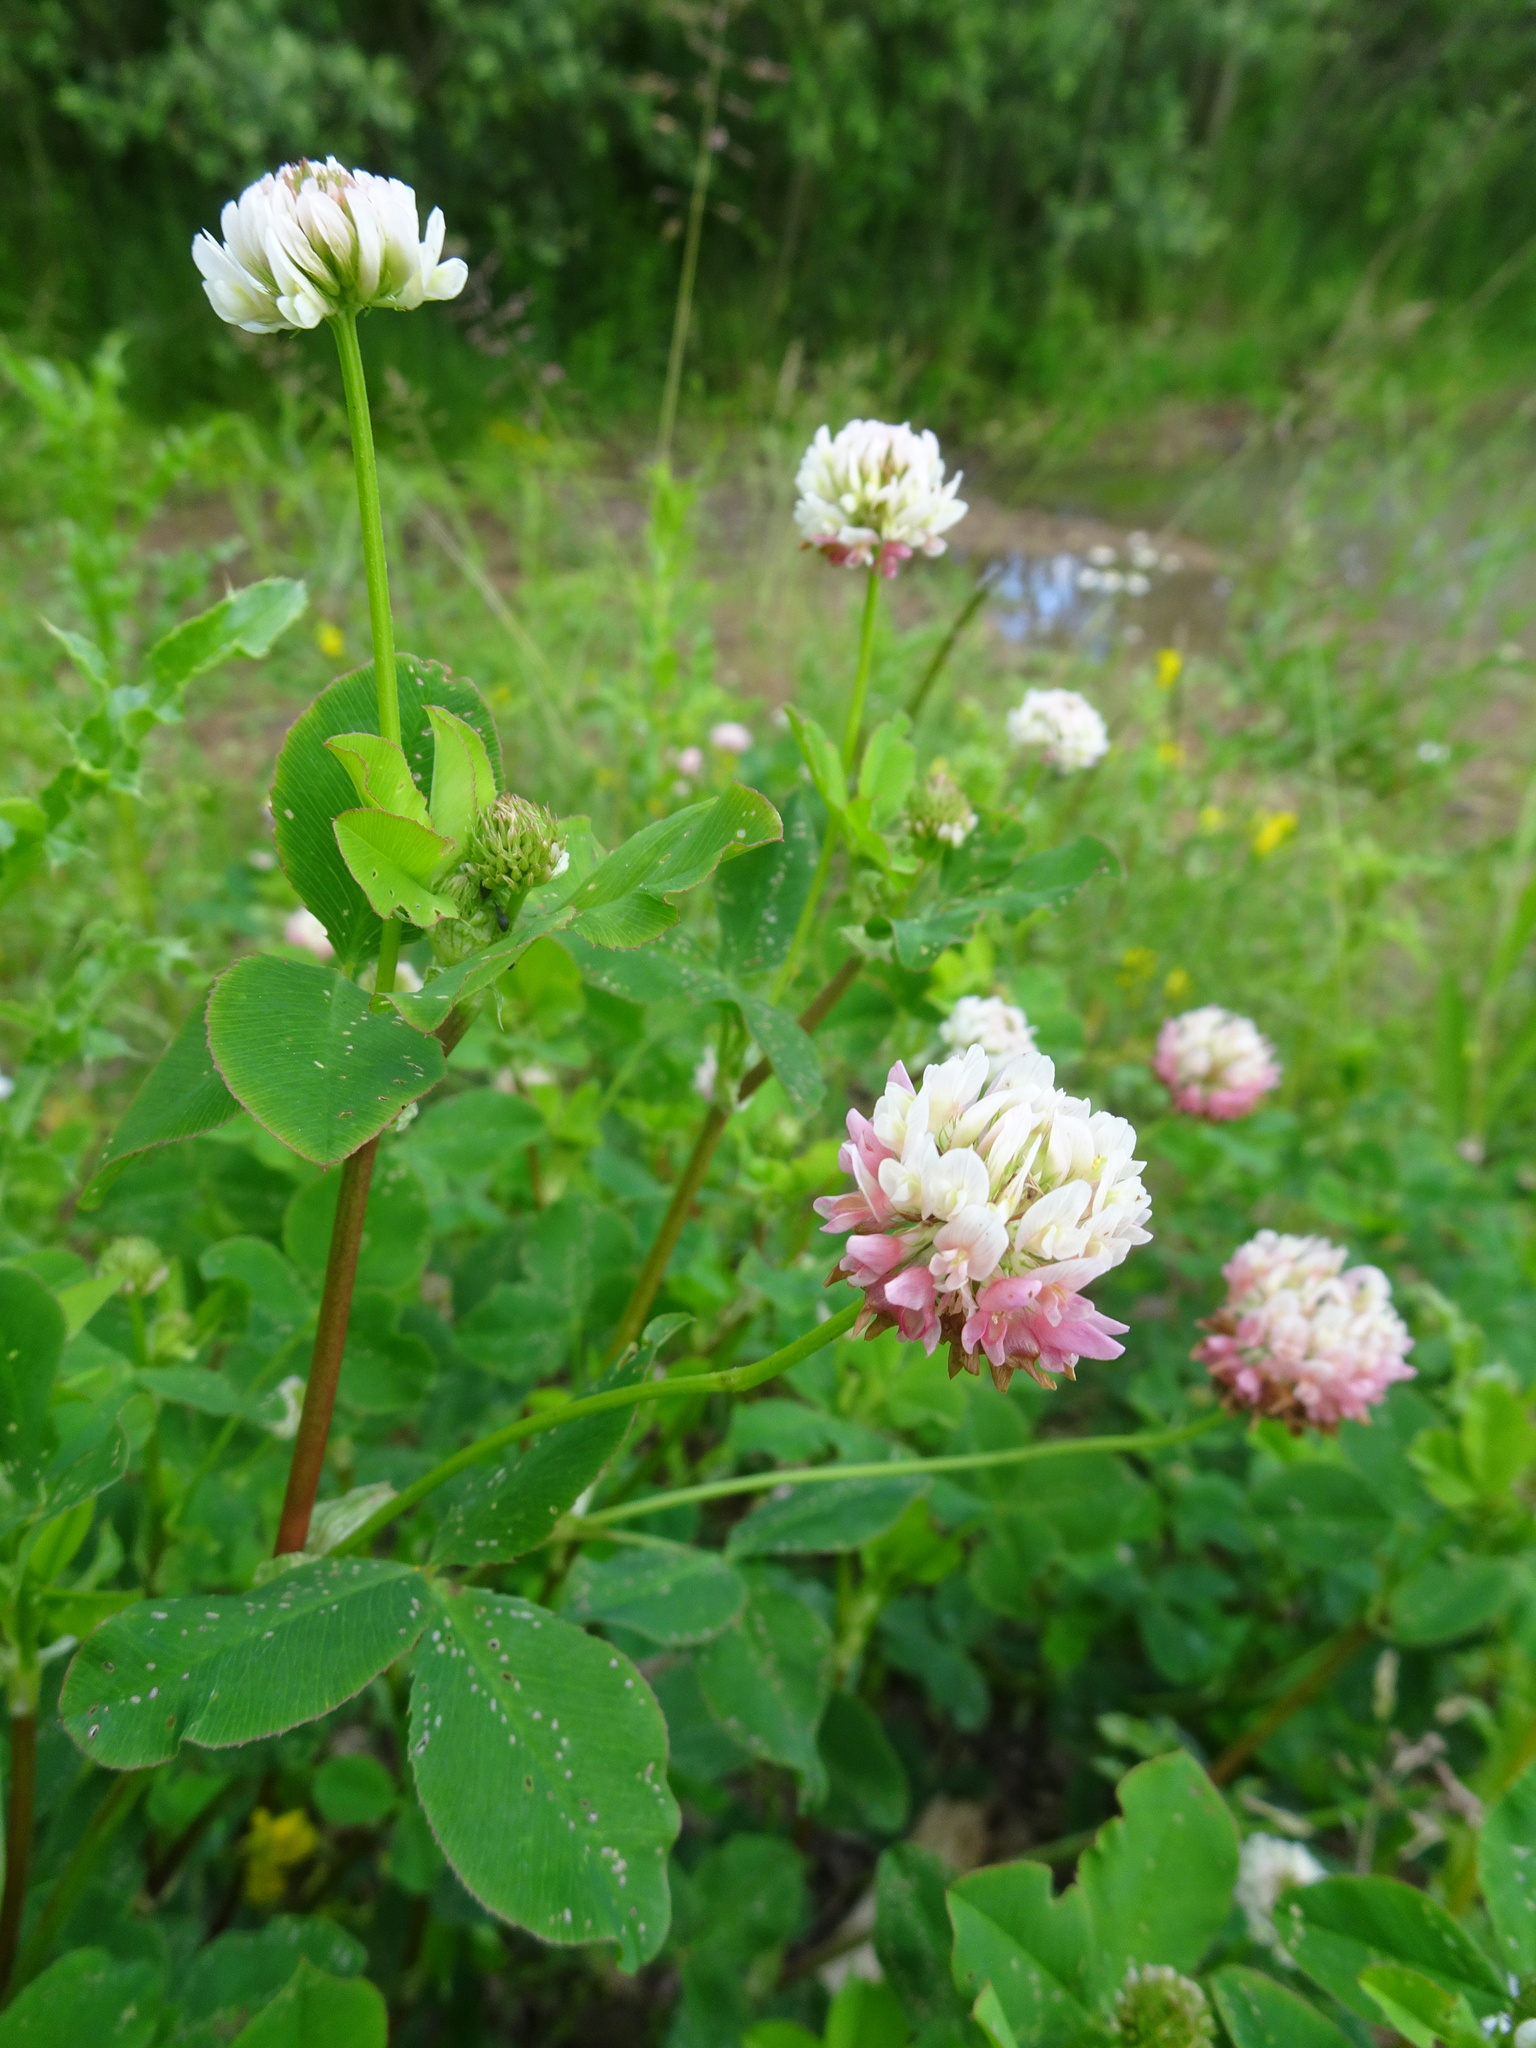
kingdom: Plantae
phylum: Tracheophyta
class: Magnoliopsida
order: Fabales
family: Fabaceae
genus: Trifolium
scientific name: Trifolium hybridum
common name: Alsike clover
